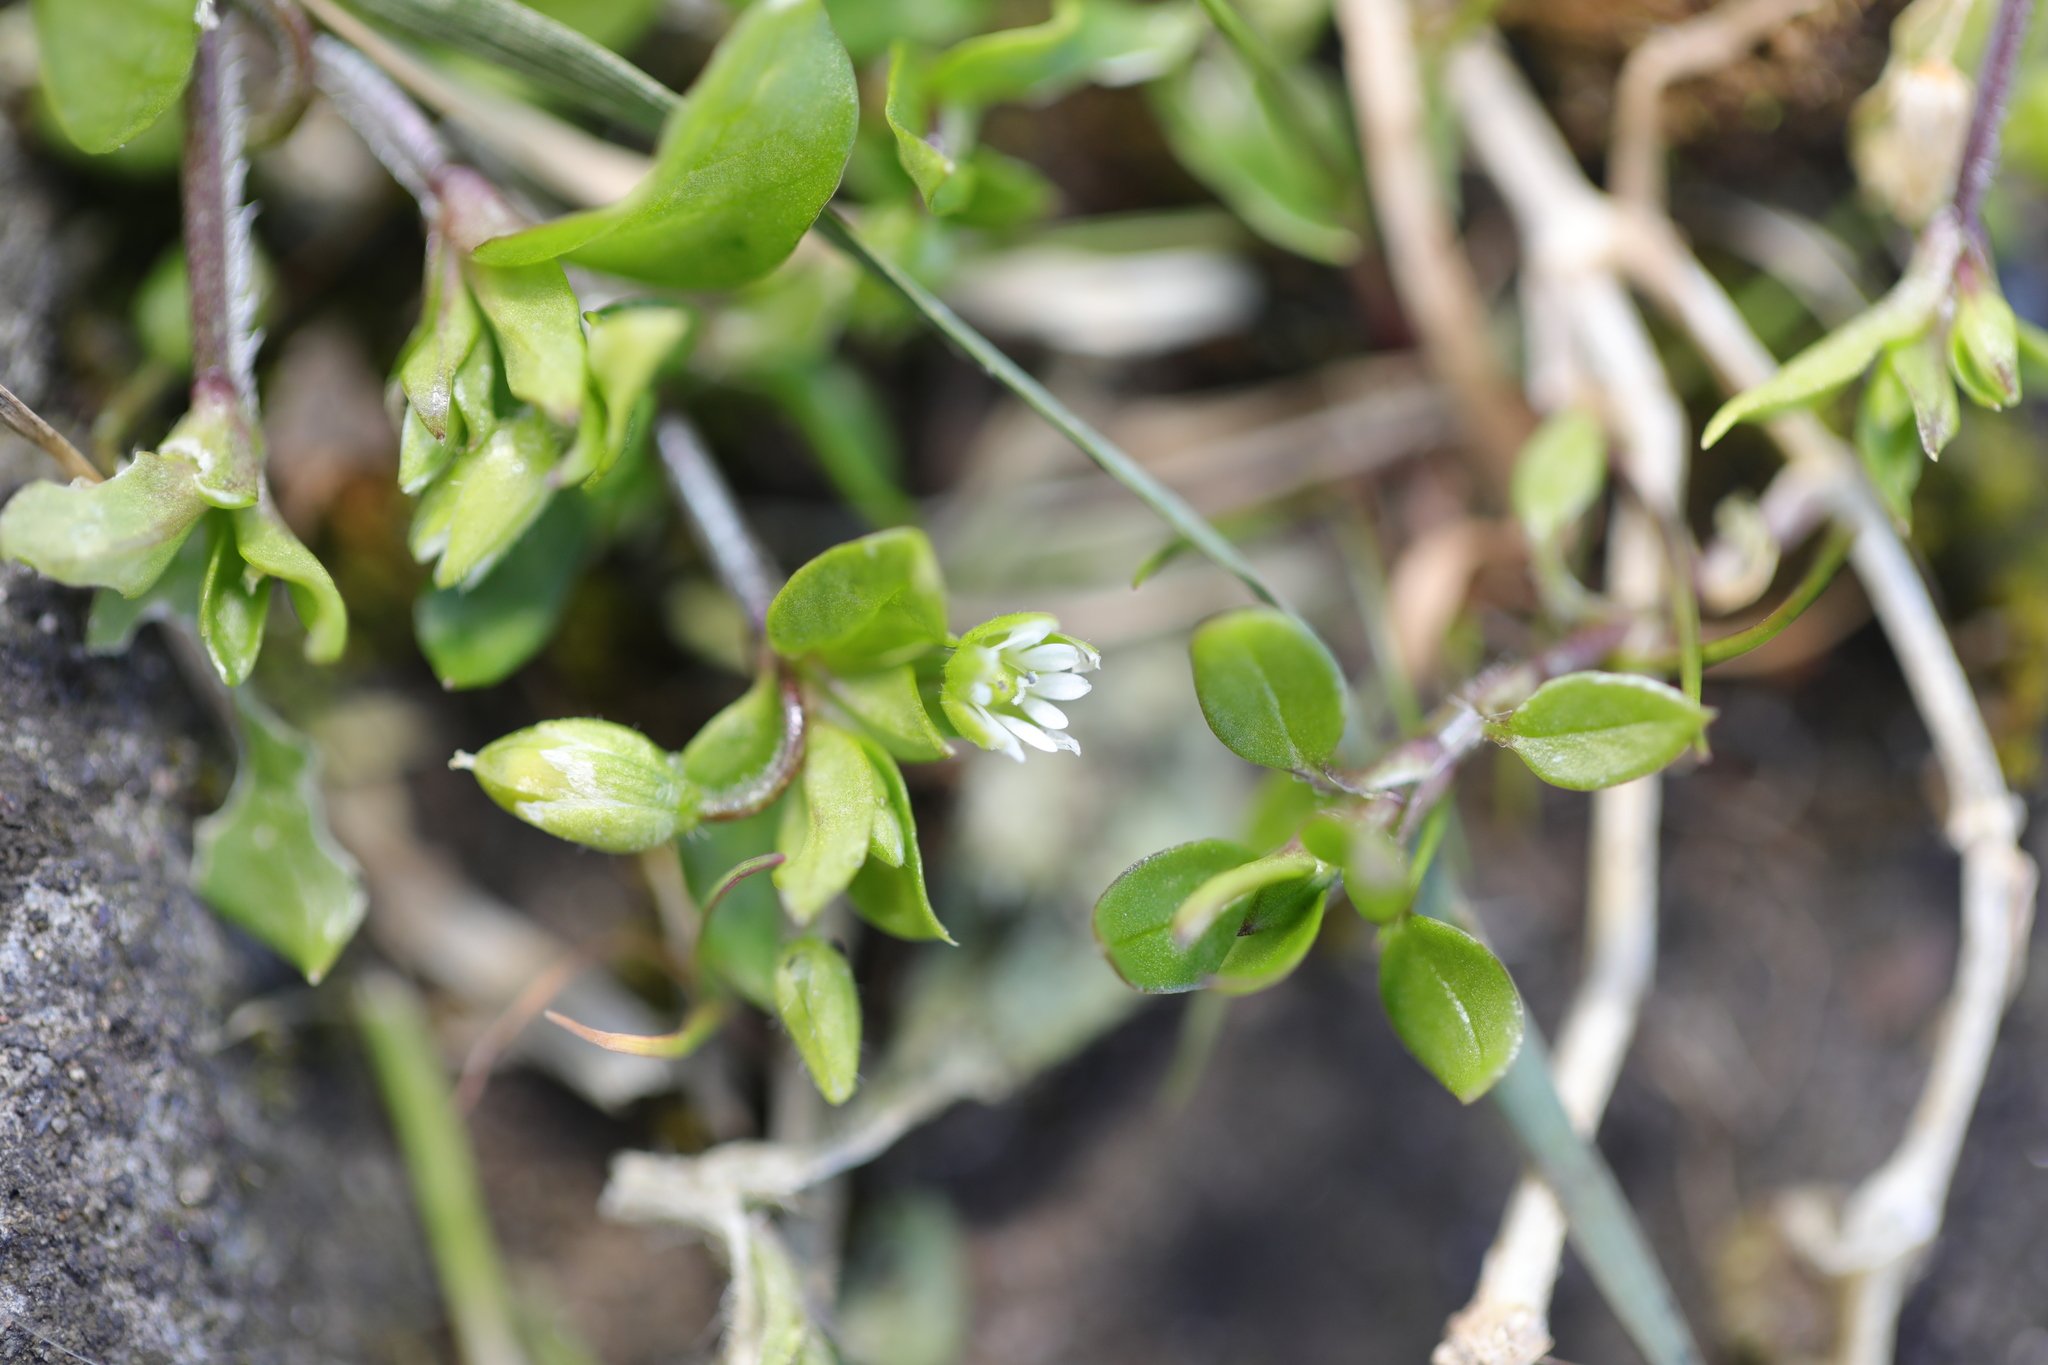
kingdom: Plantae
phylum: Tracheophyta
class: Magnoliopsida
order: Caryophyllales
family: Caryophyllaceae
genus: Stellaria
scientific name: Stellaria media
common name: Common chickweed
